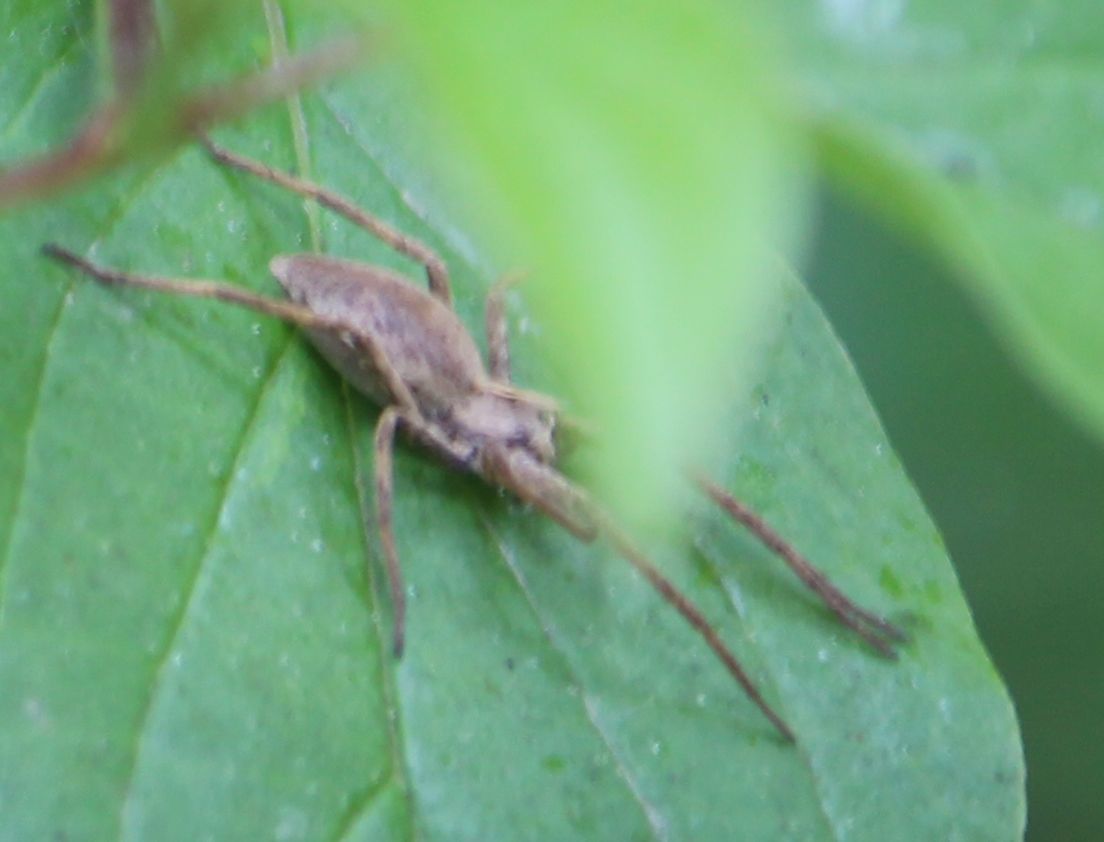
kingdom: Animalia
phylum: Arthropoda
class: Arachnida
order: Araneae
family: Pisauridae
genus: Pisaura
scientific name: Pisaura mirabilis
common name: Tent spider
